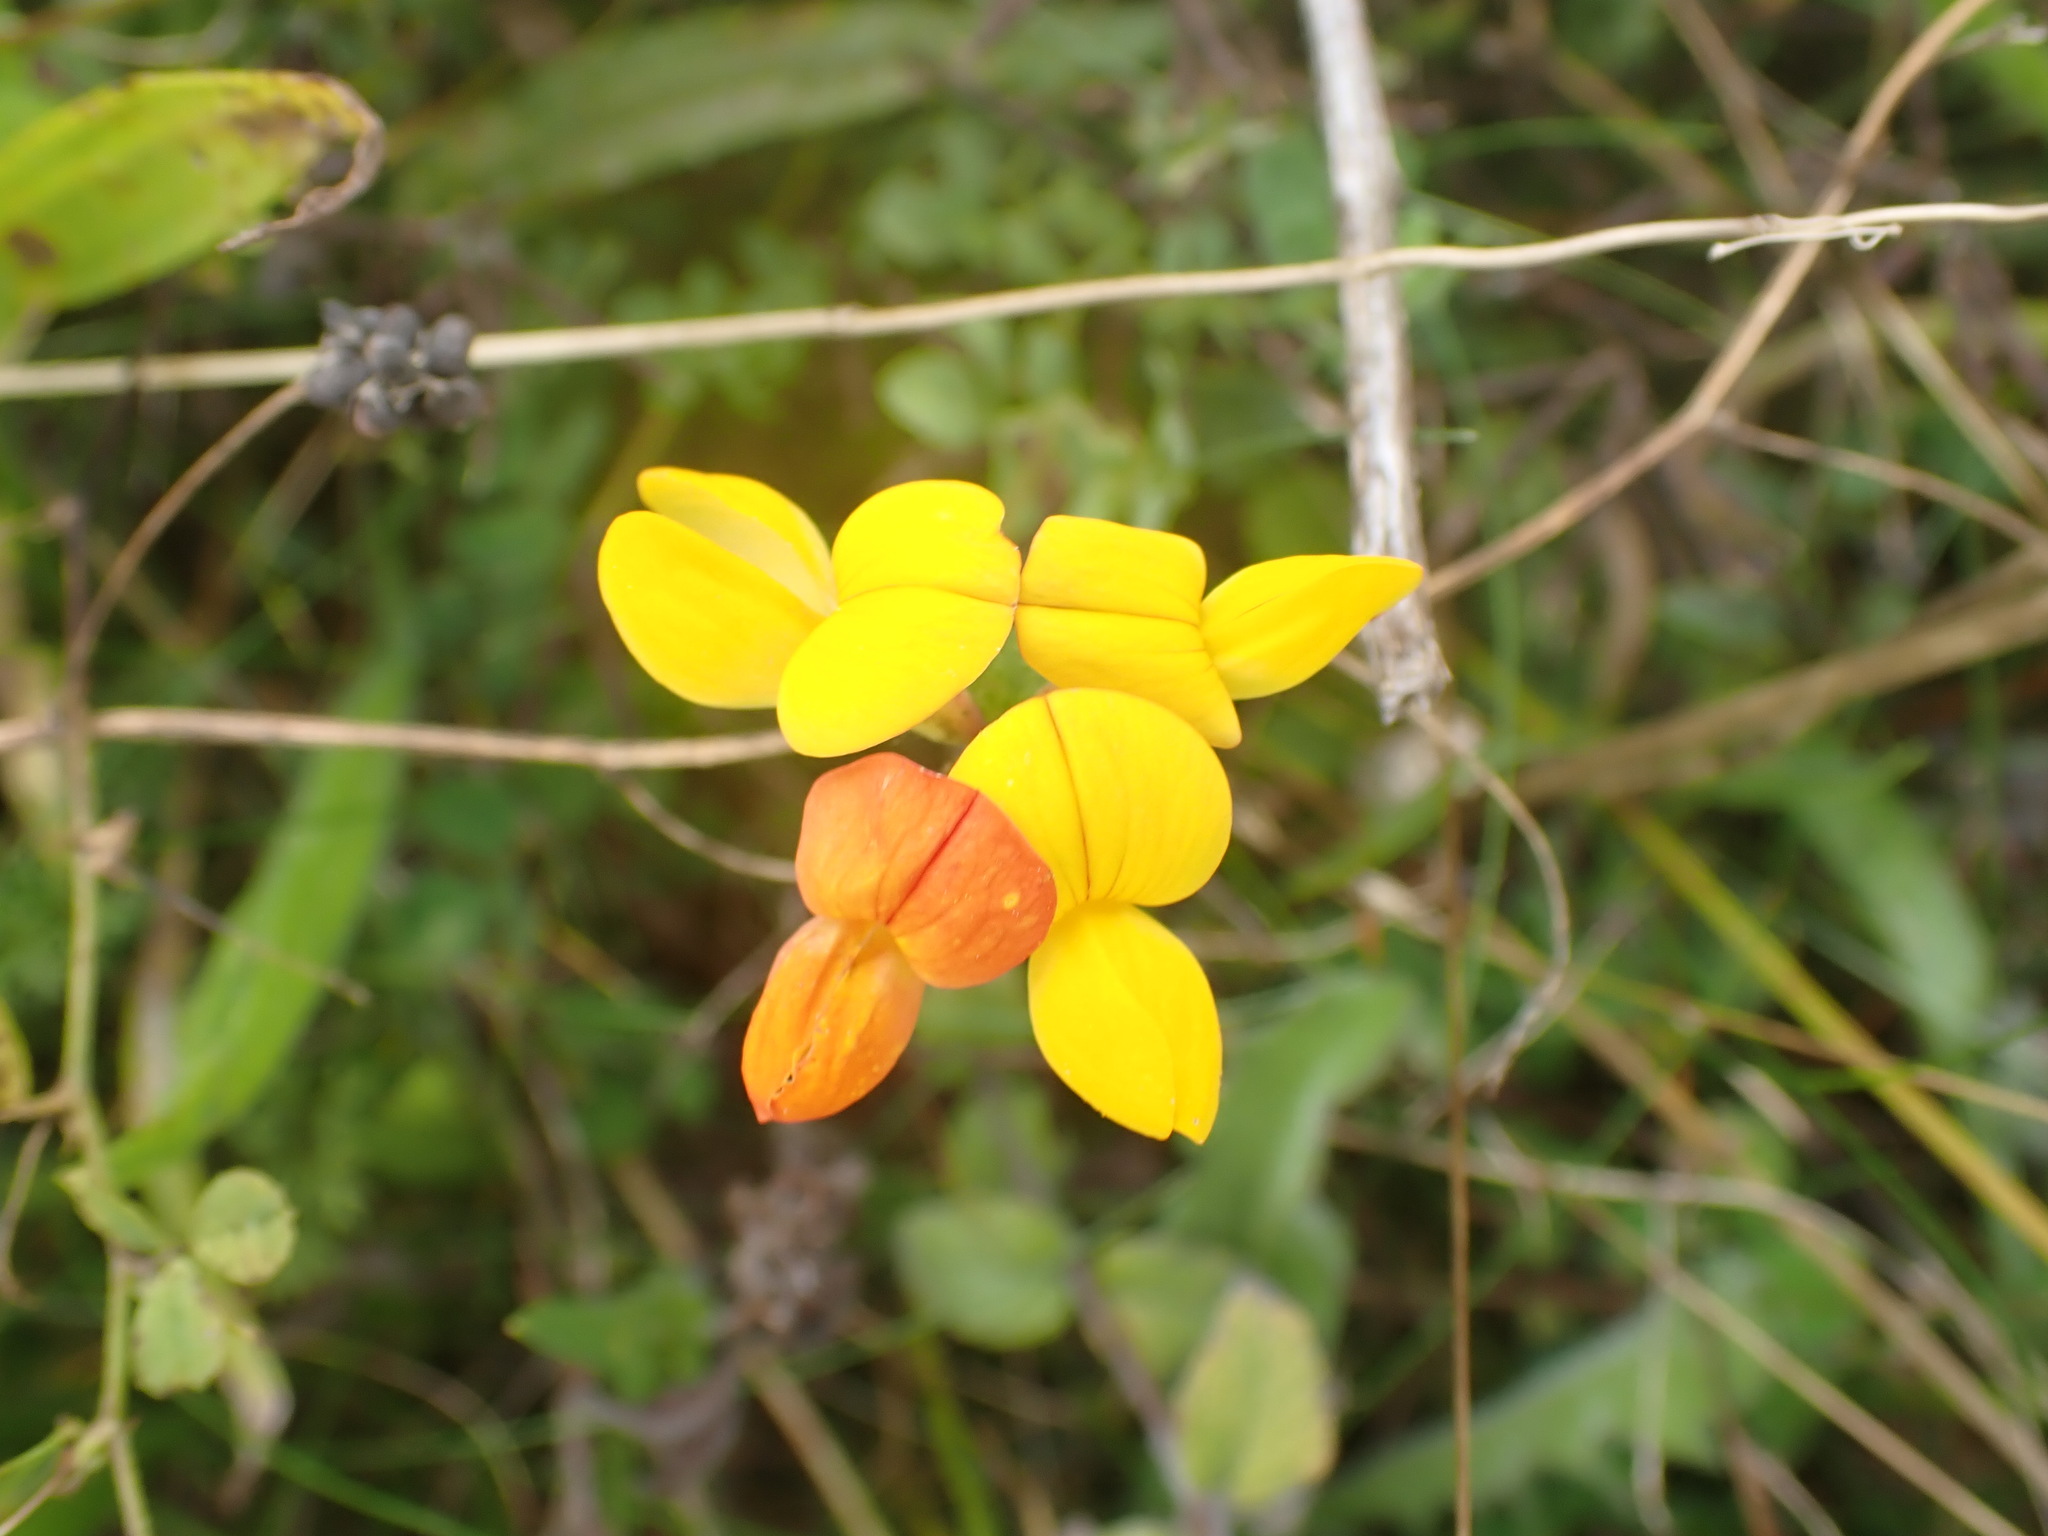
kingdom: Plantae
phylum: Tracheophyta
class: Magnoliopsida
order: Fabales
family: Fabaceae
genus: Lotus
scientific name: Lotus corniculatus
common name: Common bird's-foot-trefoil
